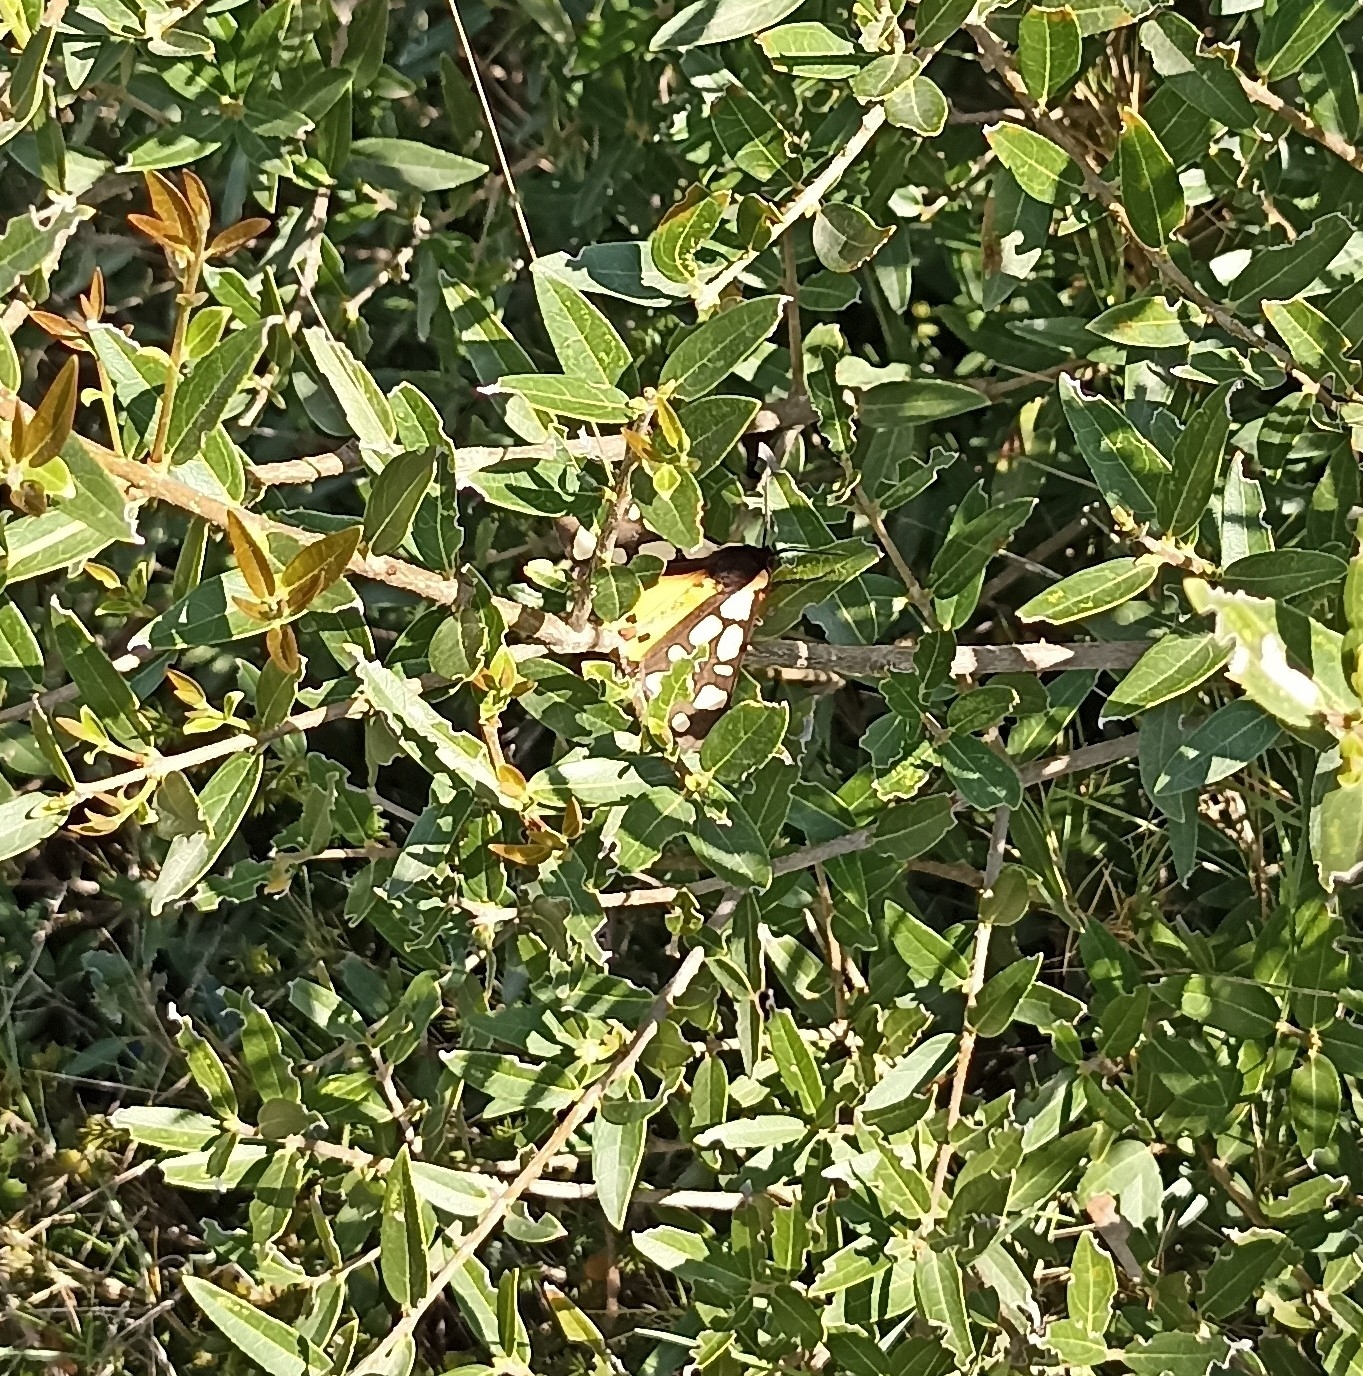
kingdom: Animalia
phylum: Arthropoda
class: Insecta
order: Lepidoptera
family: Erebidae
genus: Epicallia
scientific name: Epicallia villica
